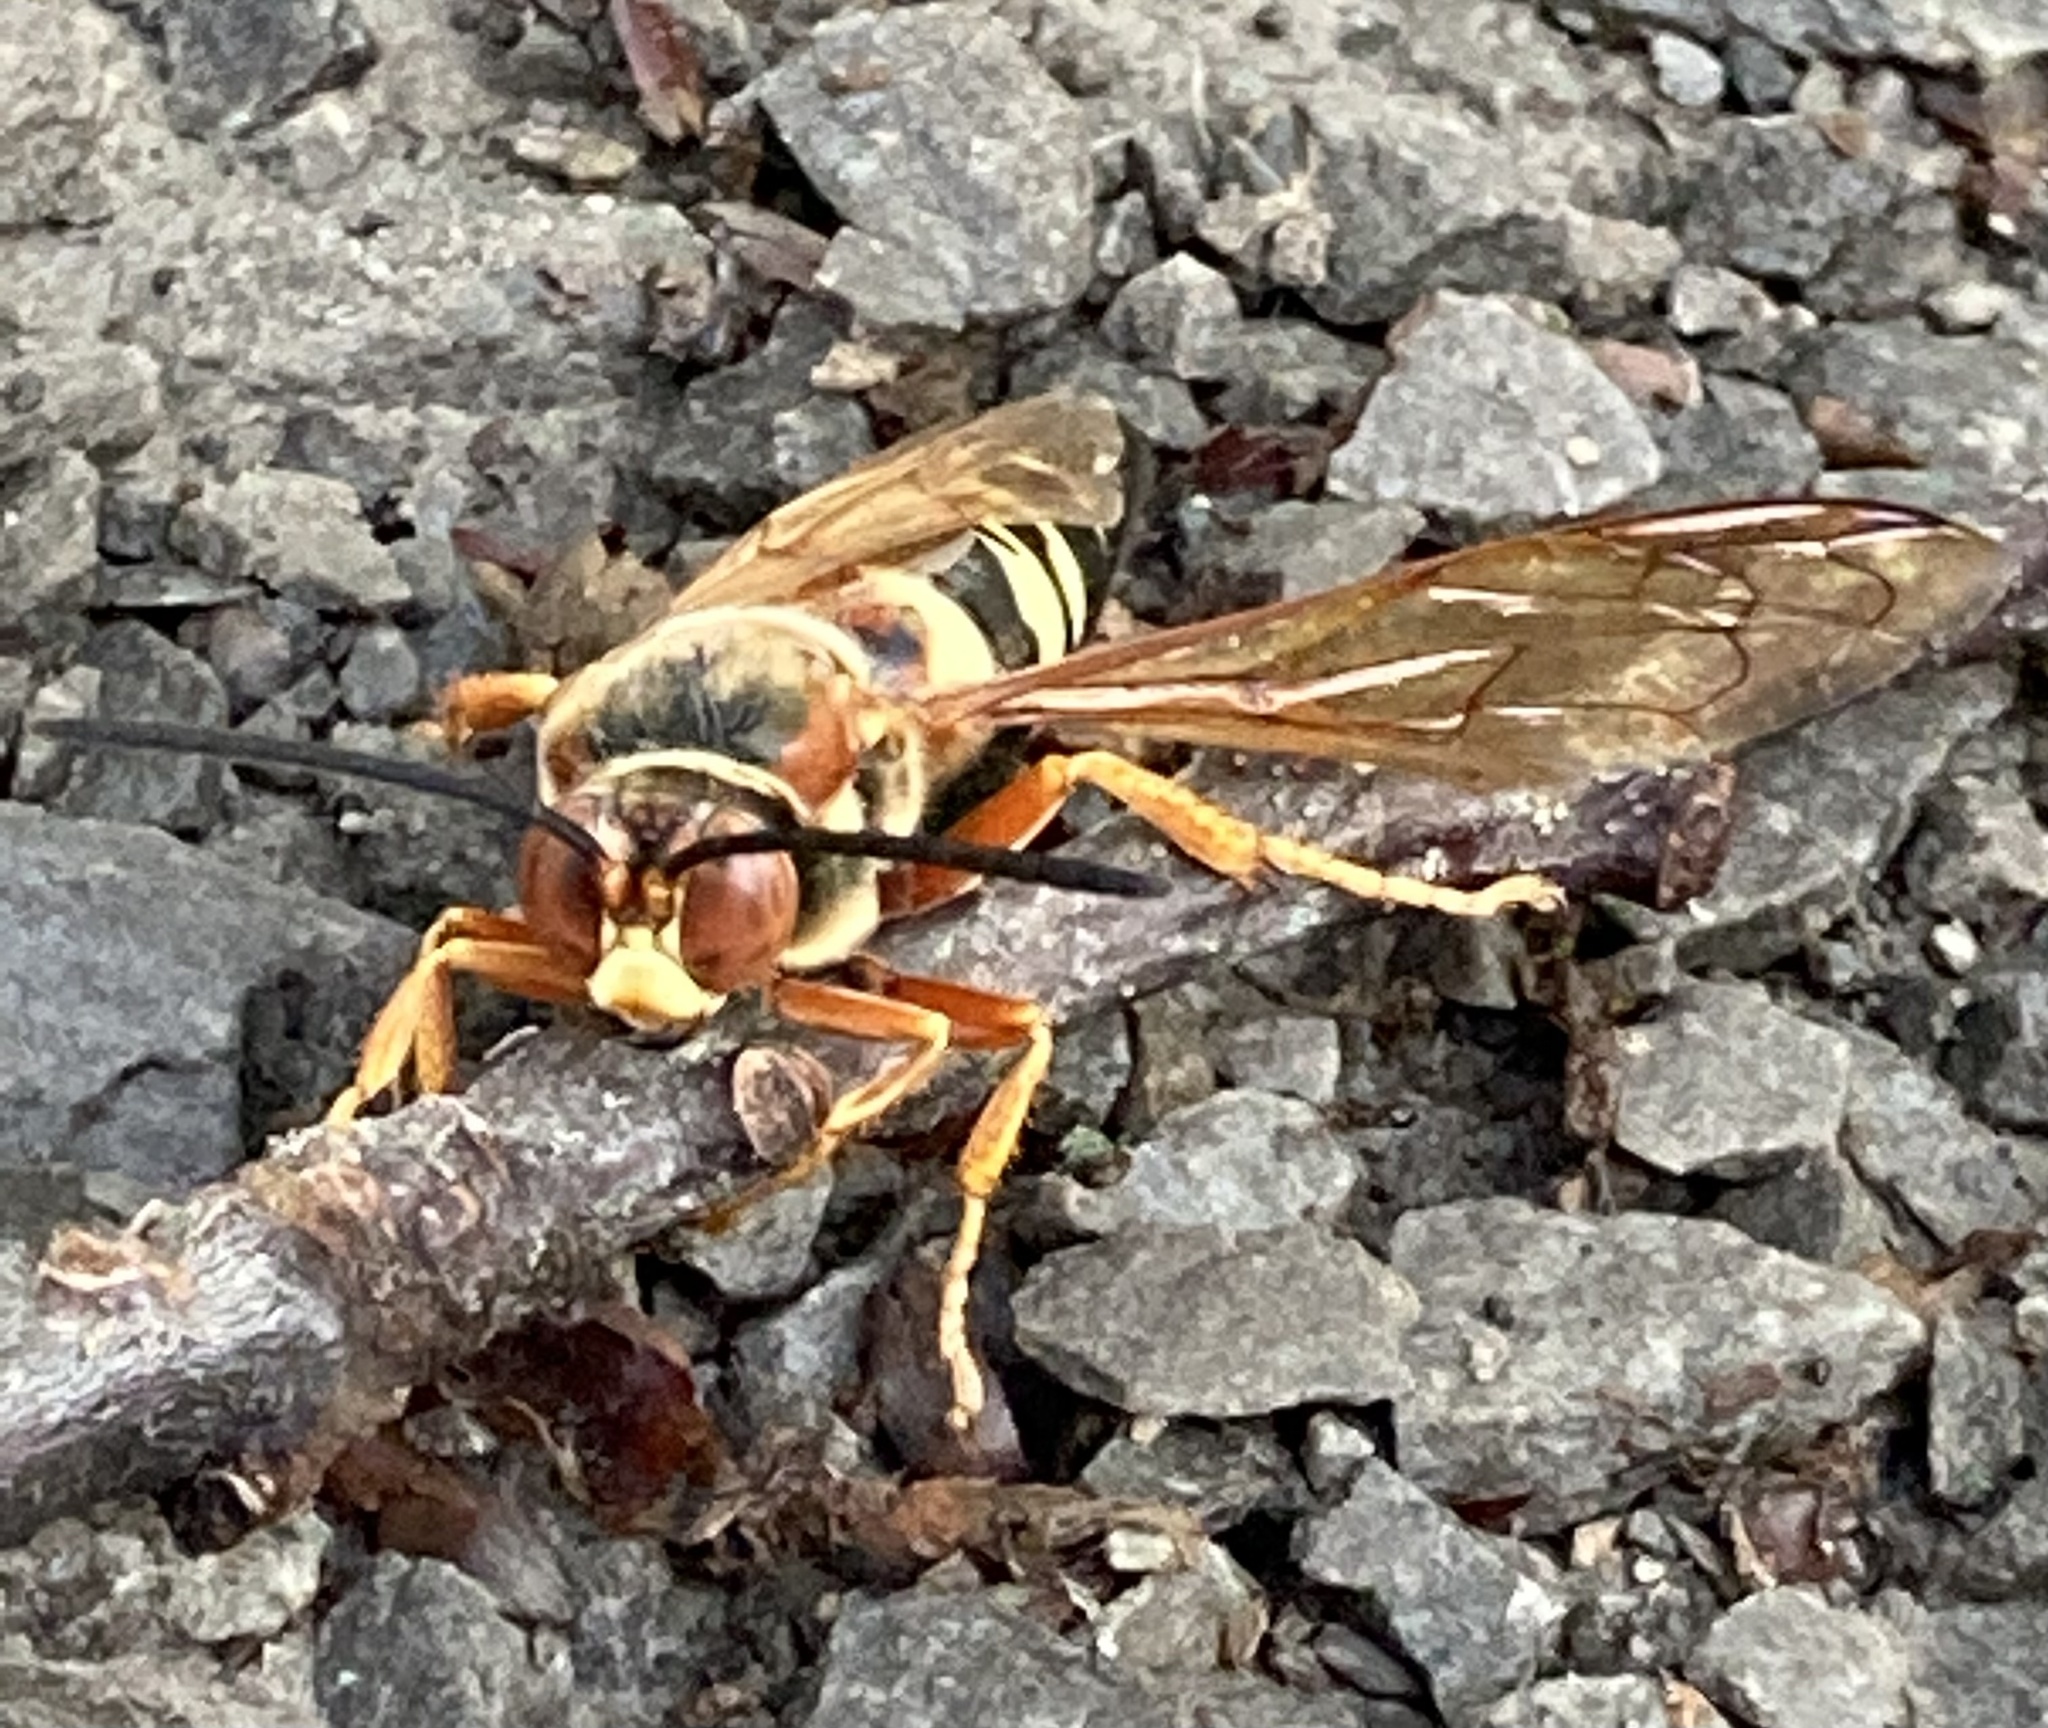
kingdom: Animalia
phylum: Arthropoda
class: Insecta
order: Hymenoptera
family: Crabronidae
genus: Sphecius
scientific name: Sphecius speciosus
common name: Cicada killer
